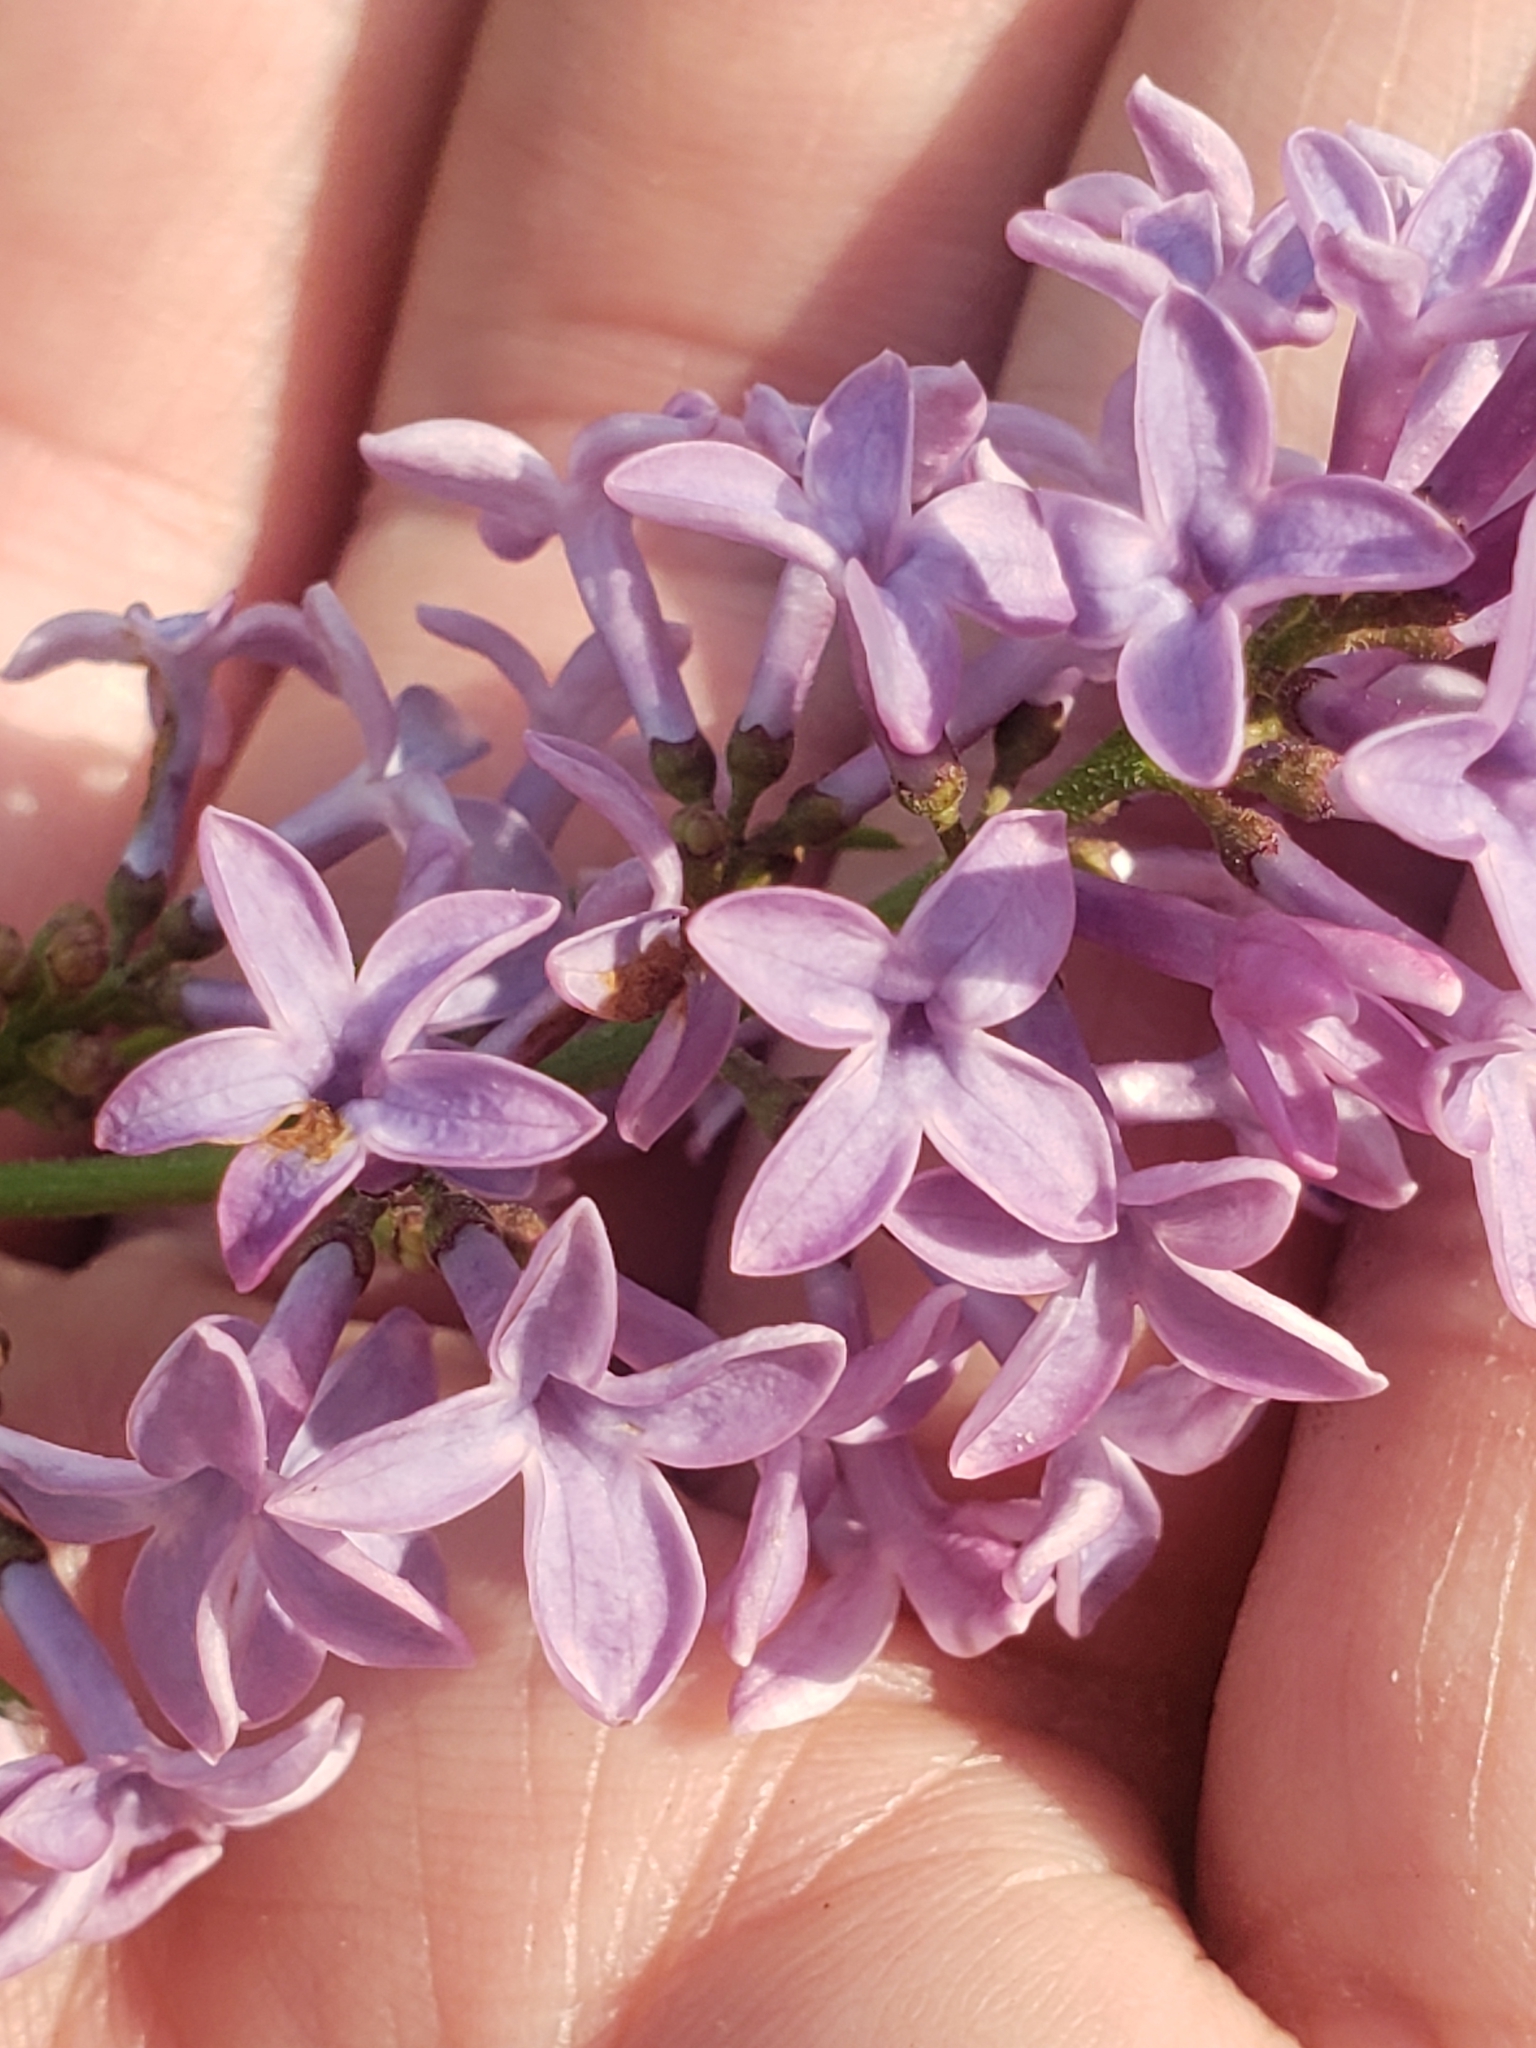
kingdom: Plantae
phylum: Tracheophyta
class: Magnoliopsida
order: Lamiales
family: Oleaceae
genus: Syringa
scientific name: Syringa vulgaris
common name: Common lilac
